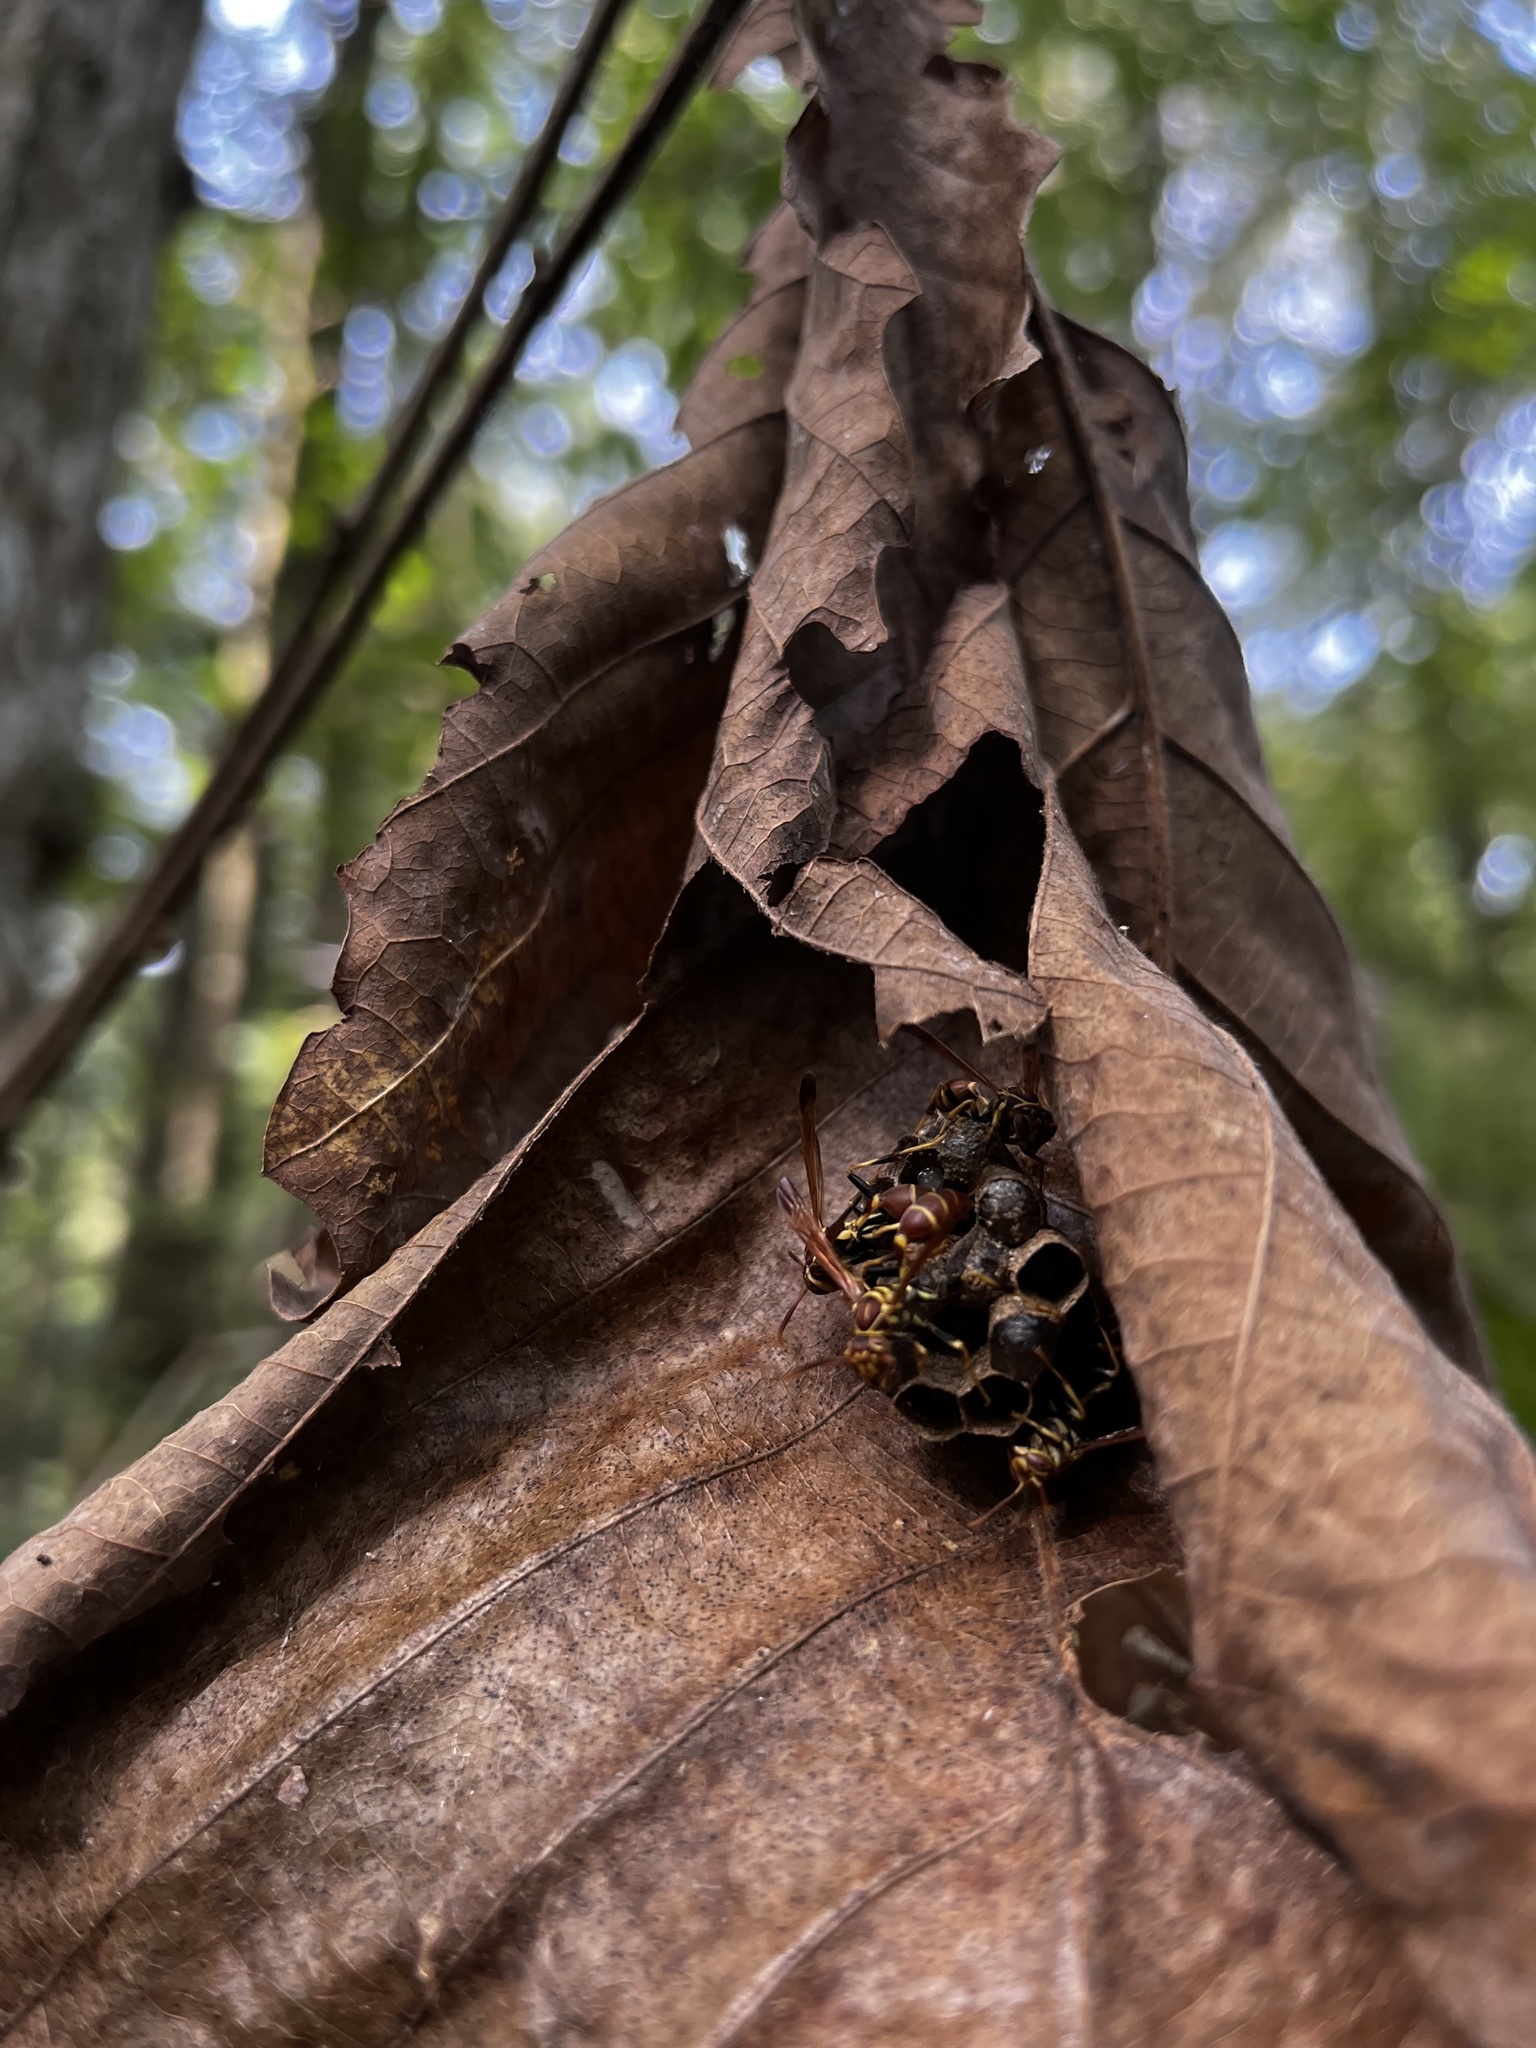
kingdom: Animalia
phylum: Arthropoda
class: Insecta
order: Hymenoptera
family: Vespidae
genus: Mischocyttarus
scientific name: Mischocyttarus mexicanus
